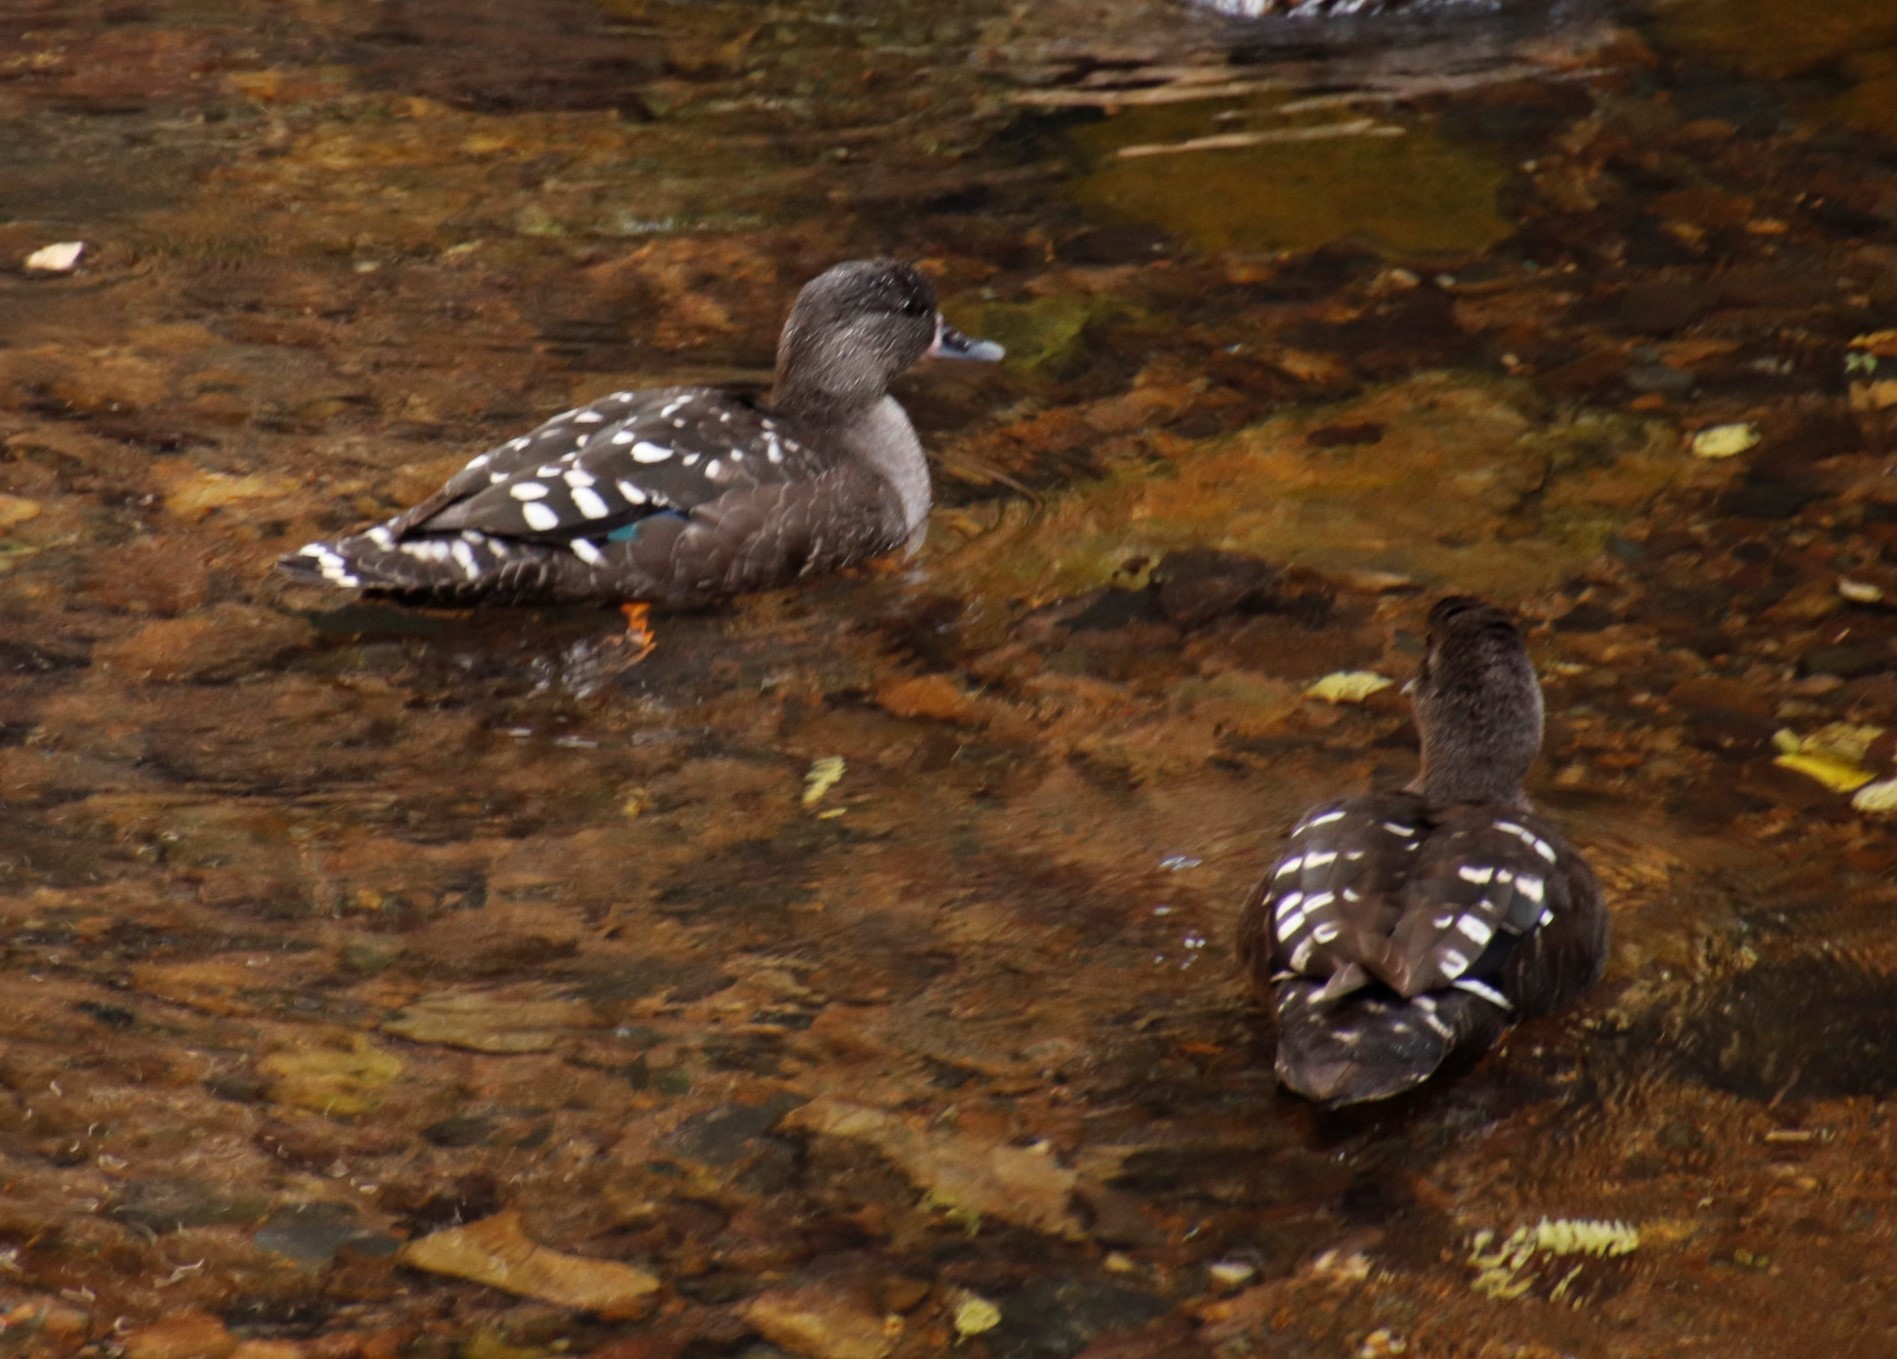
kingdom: Animalia
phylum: Chordata
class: Aves
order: Anseriformes
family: Anatidae
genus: Anas
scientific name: Anas sparsa
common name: African black duck
